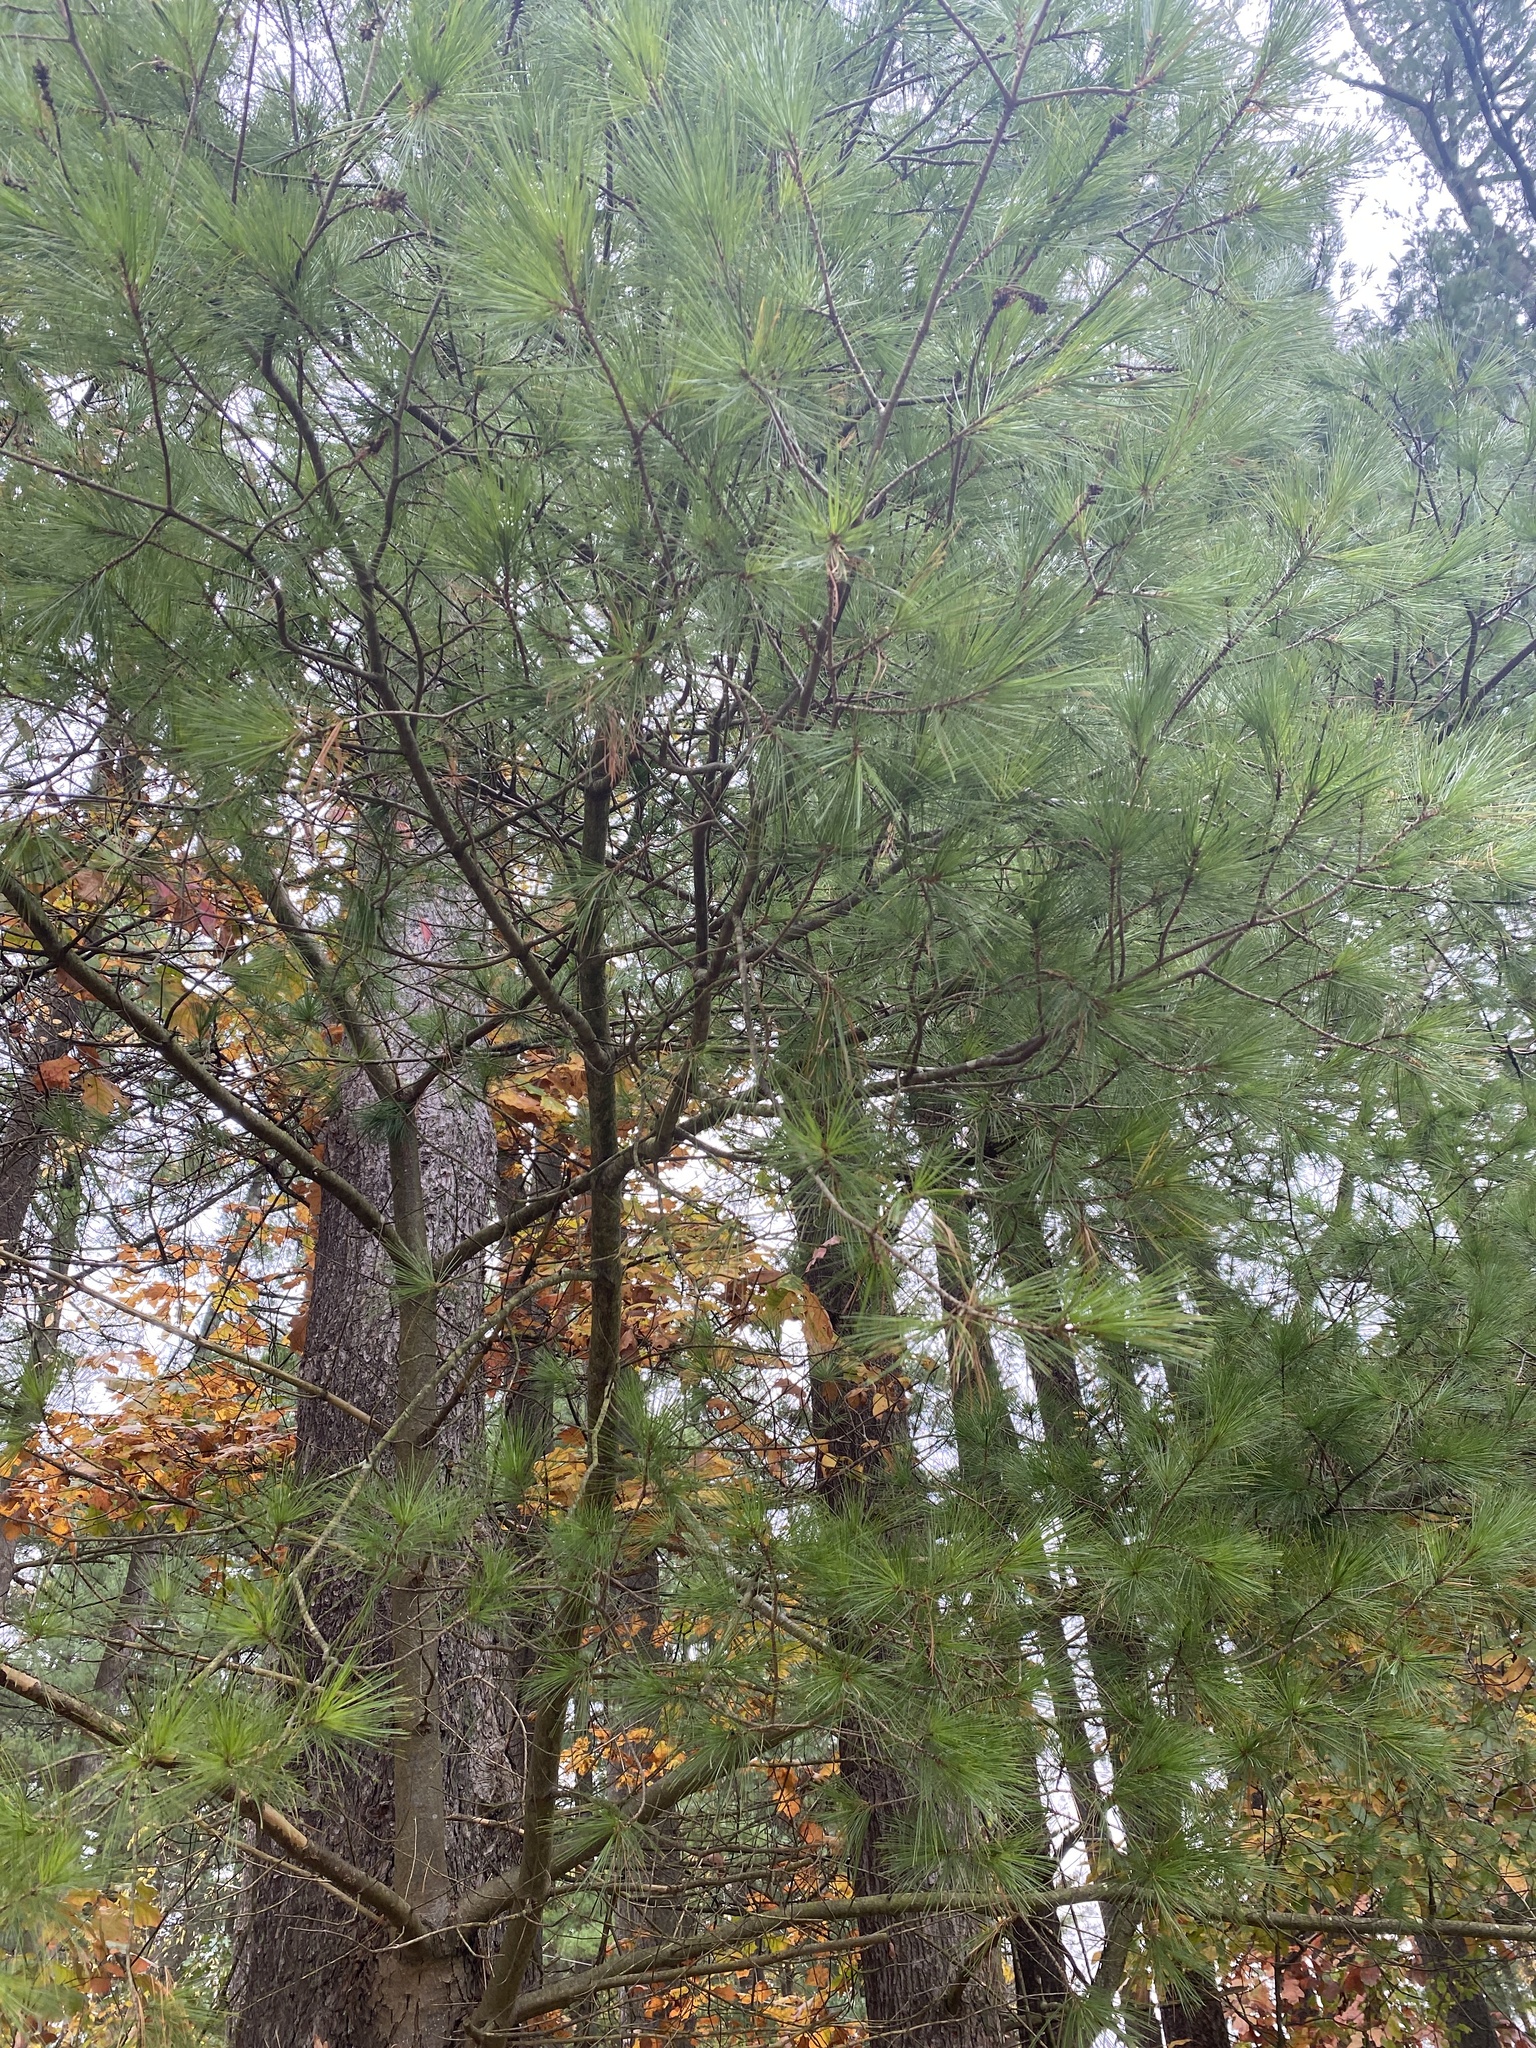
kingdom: Plantae
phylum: Tracheophyta
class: Pinopsida
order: Pinales
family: Pinaceae
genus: Pinus
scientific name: Pinus strobus
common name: Weymouth pine
